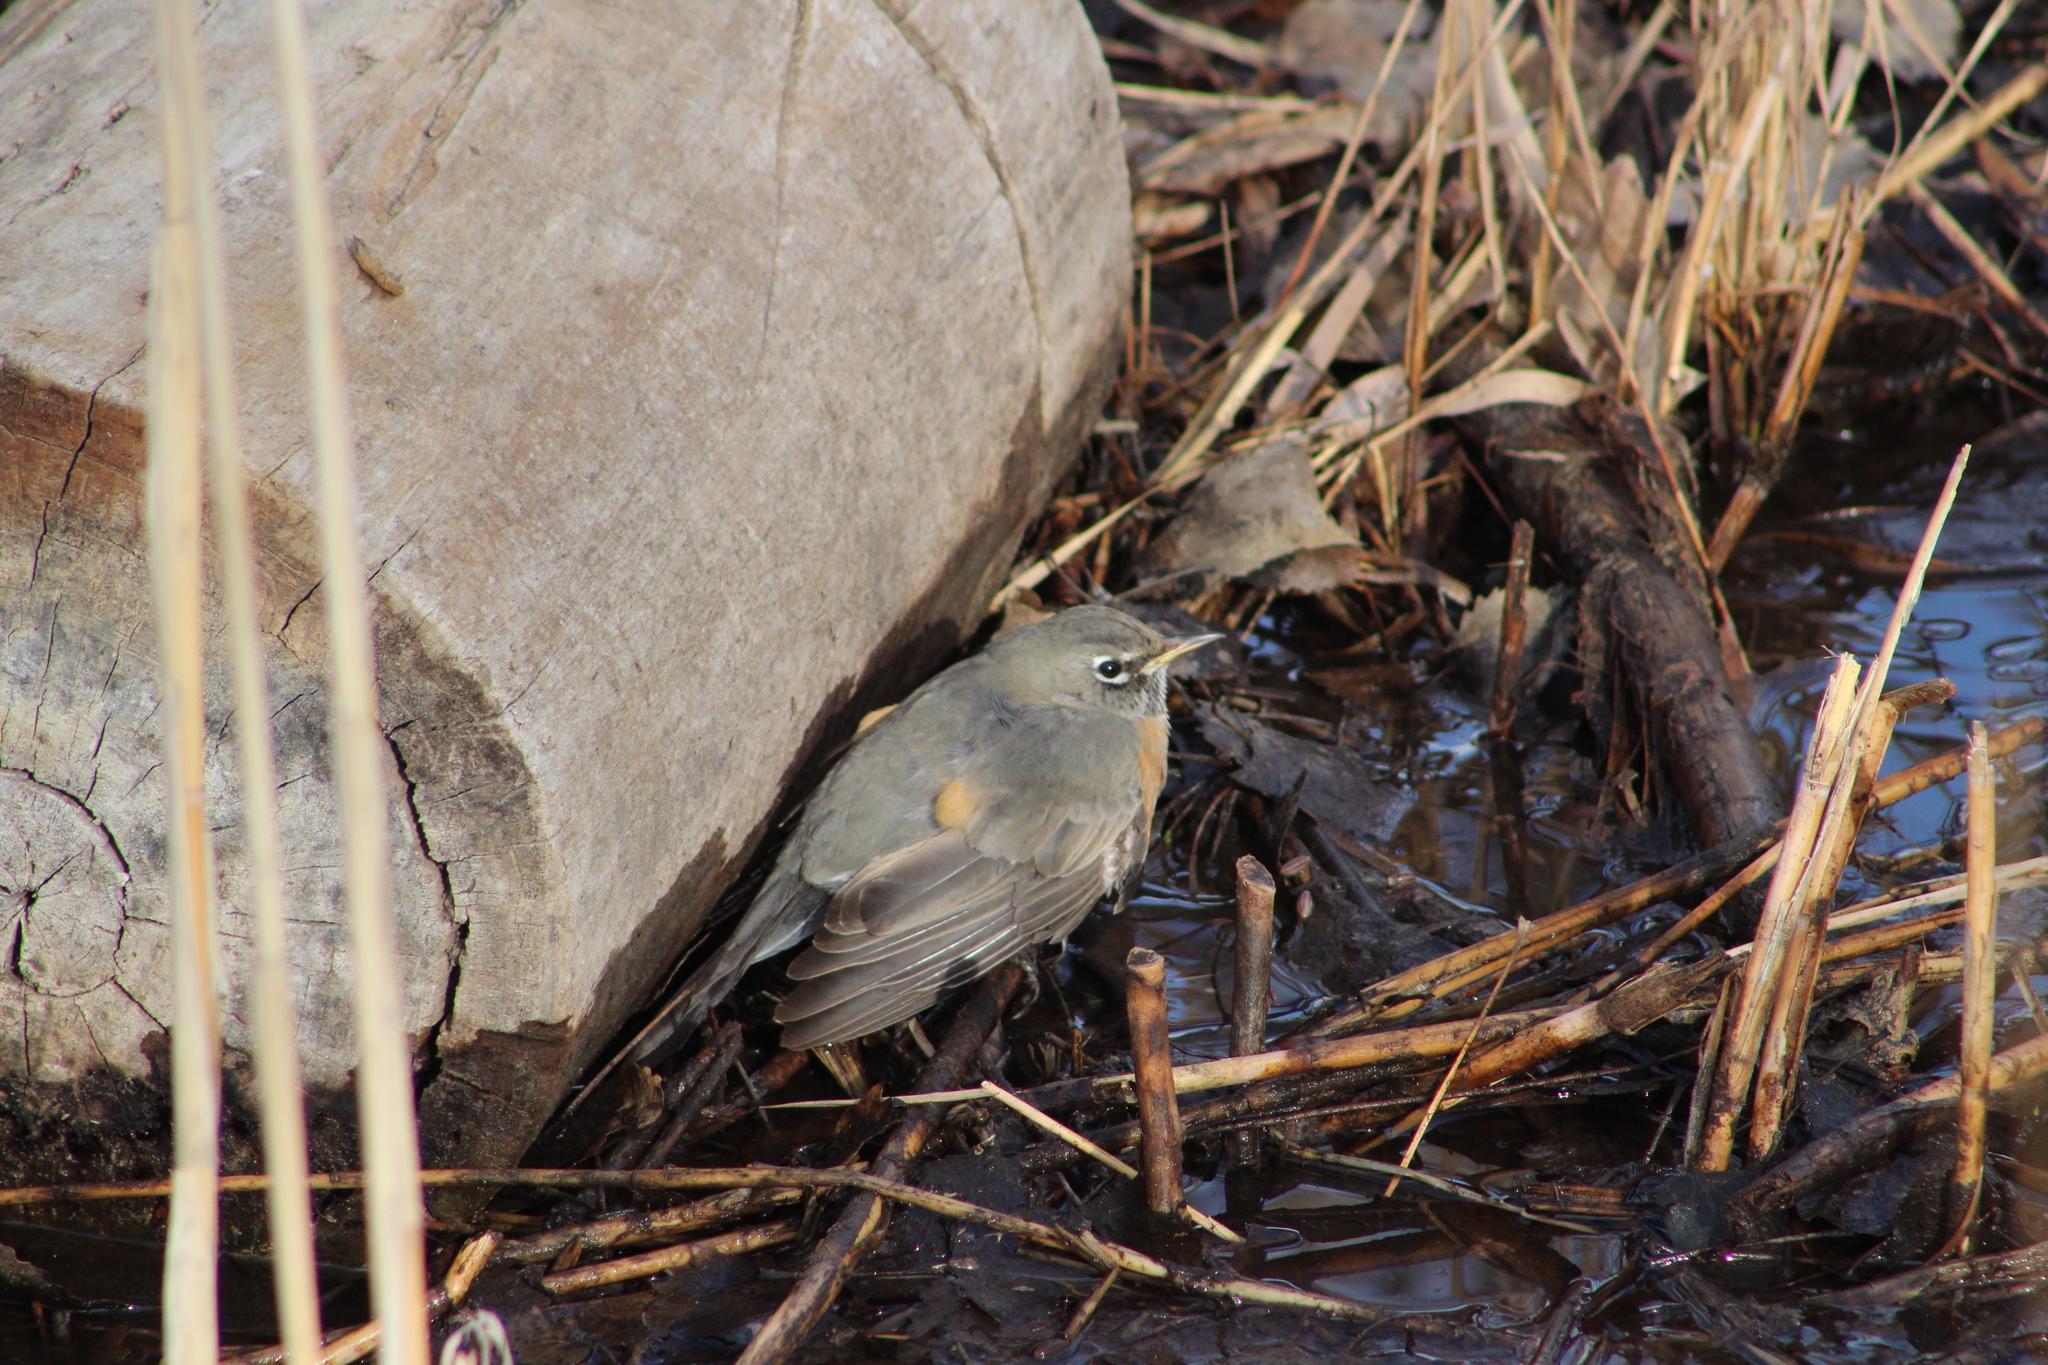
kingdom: Animalia
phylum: Chordata
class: Aves
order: Passeriformes
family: Turdidae
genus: Turdus
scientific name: Turdus migratorius
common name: American robin
